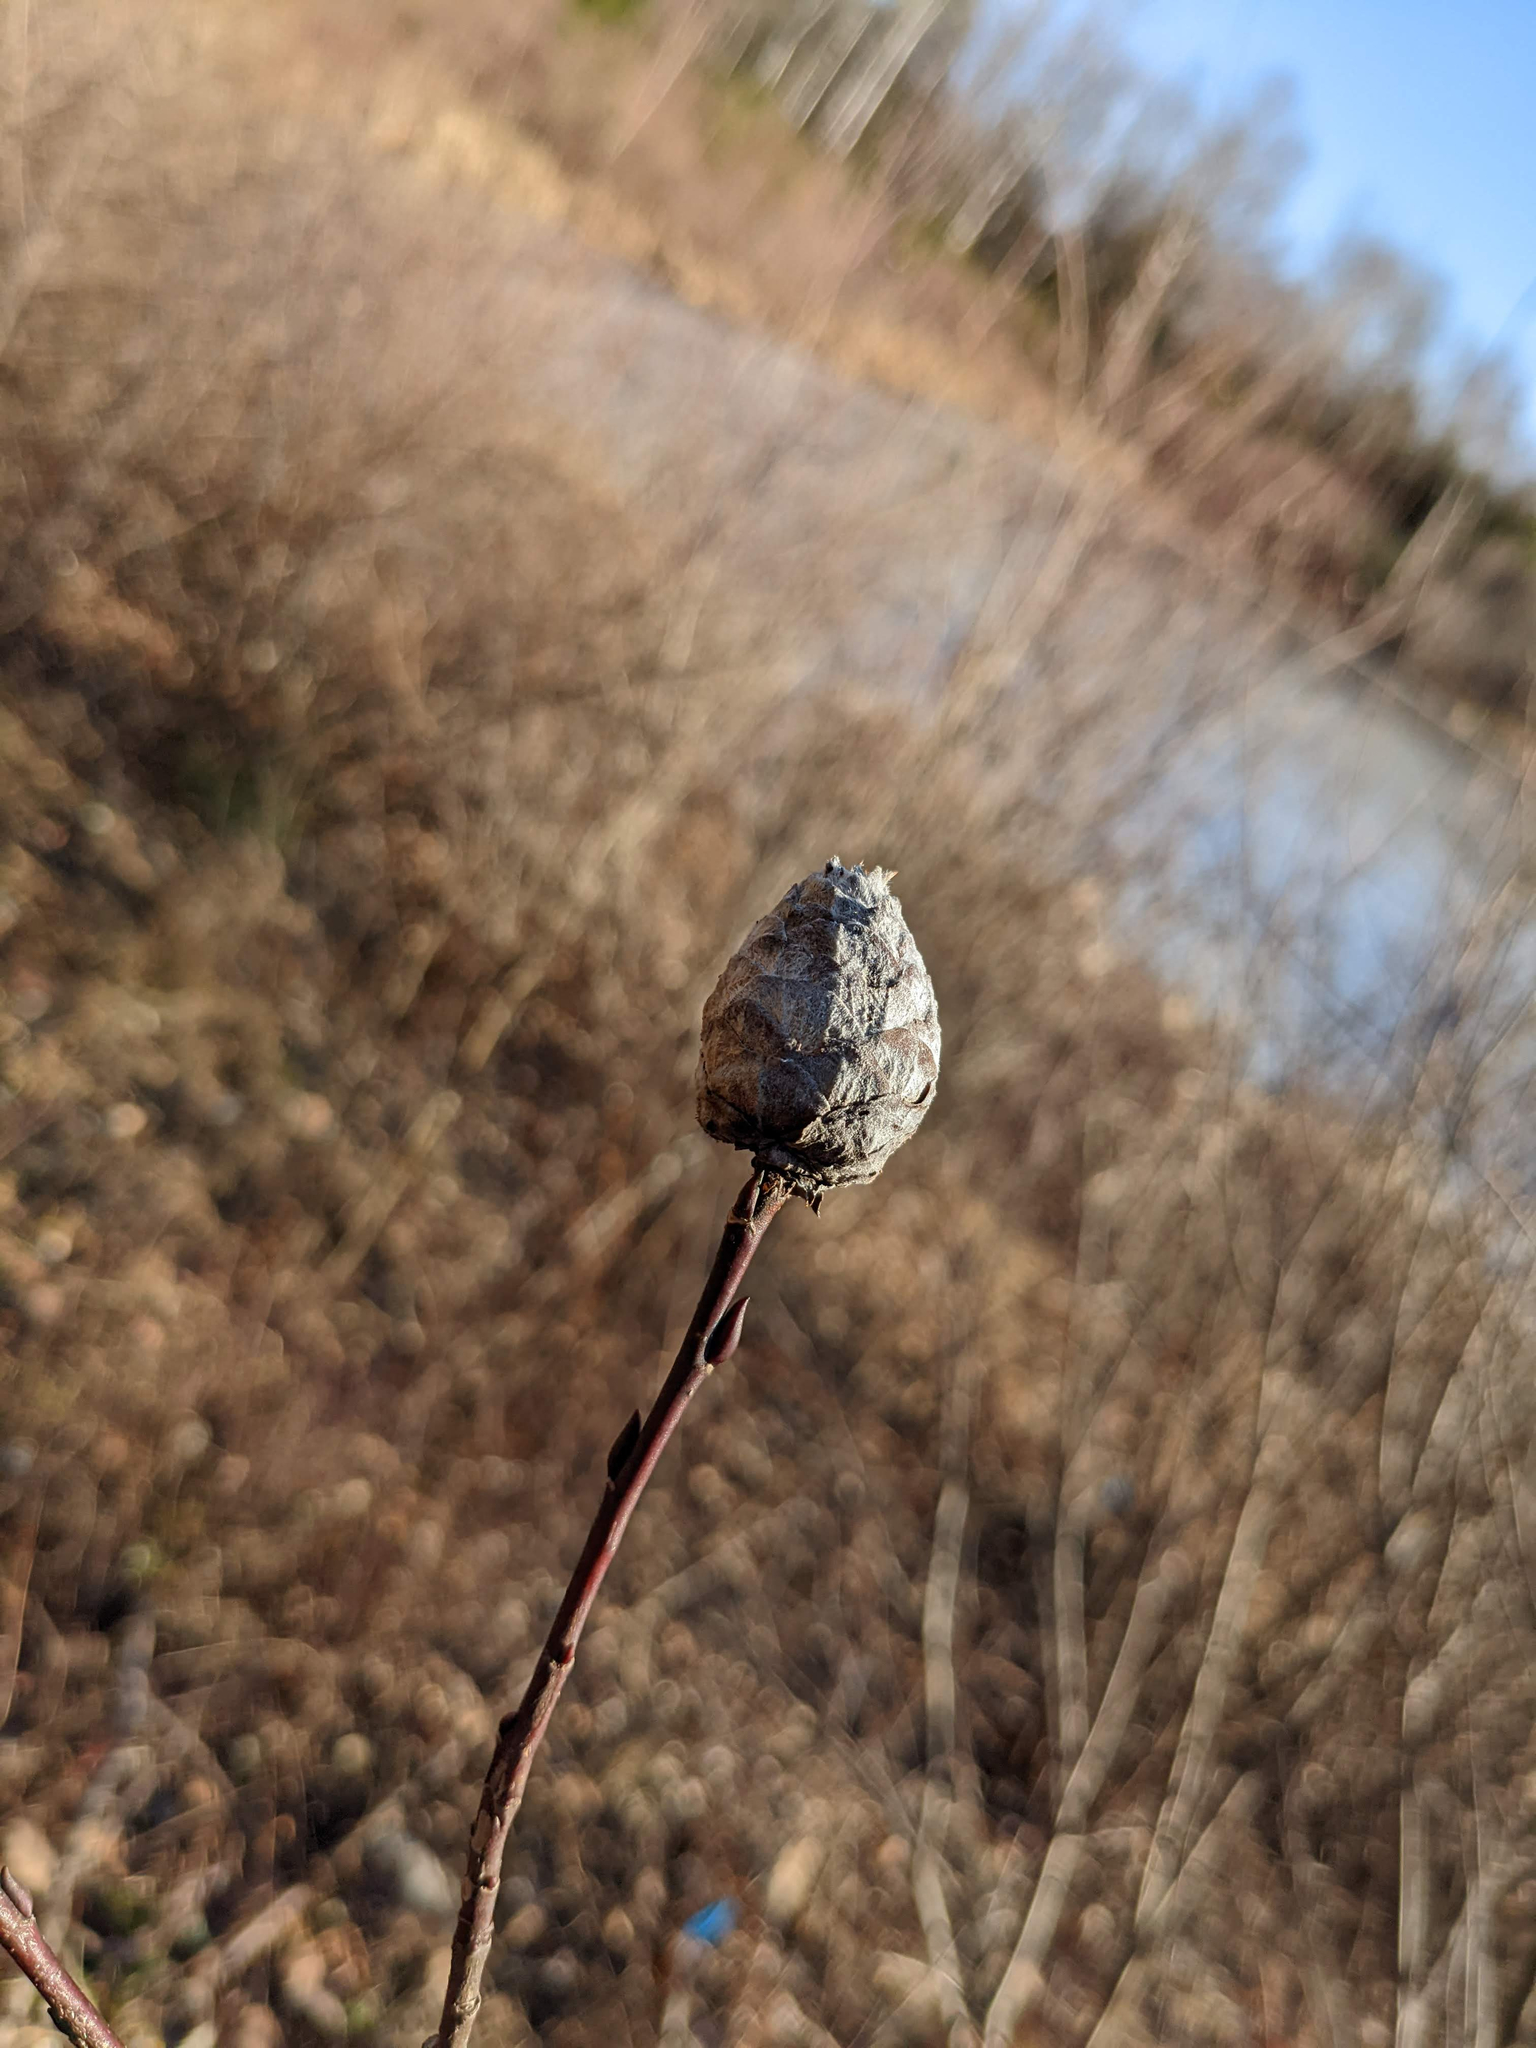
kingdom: Animalia
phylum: Arthropoda
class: Insecta
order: Diptera
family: Cecidomyiidae
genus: Rabdophaga
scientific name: Rabdophaga strobiloides
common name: Willow pinecone gall midge
